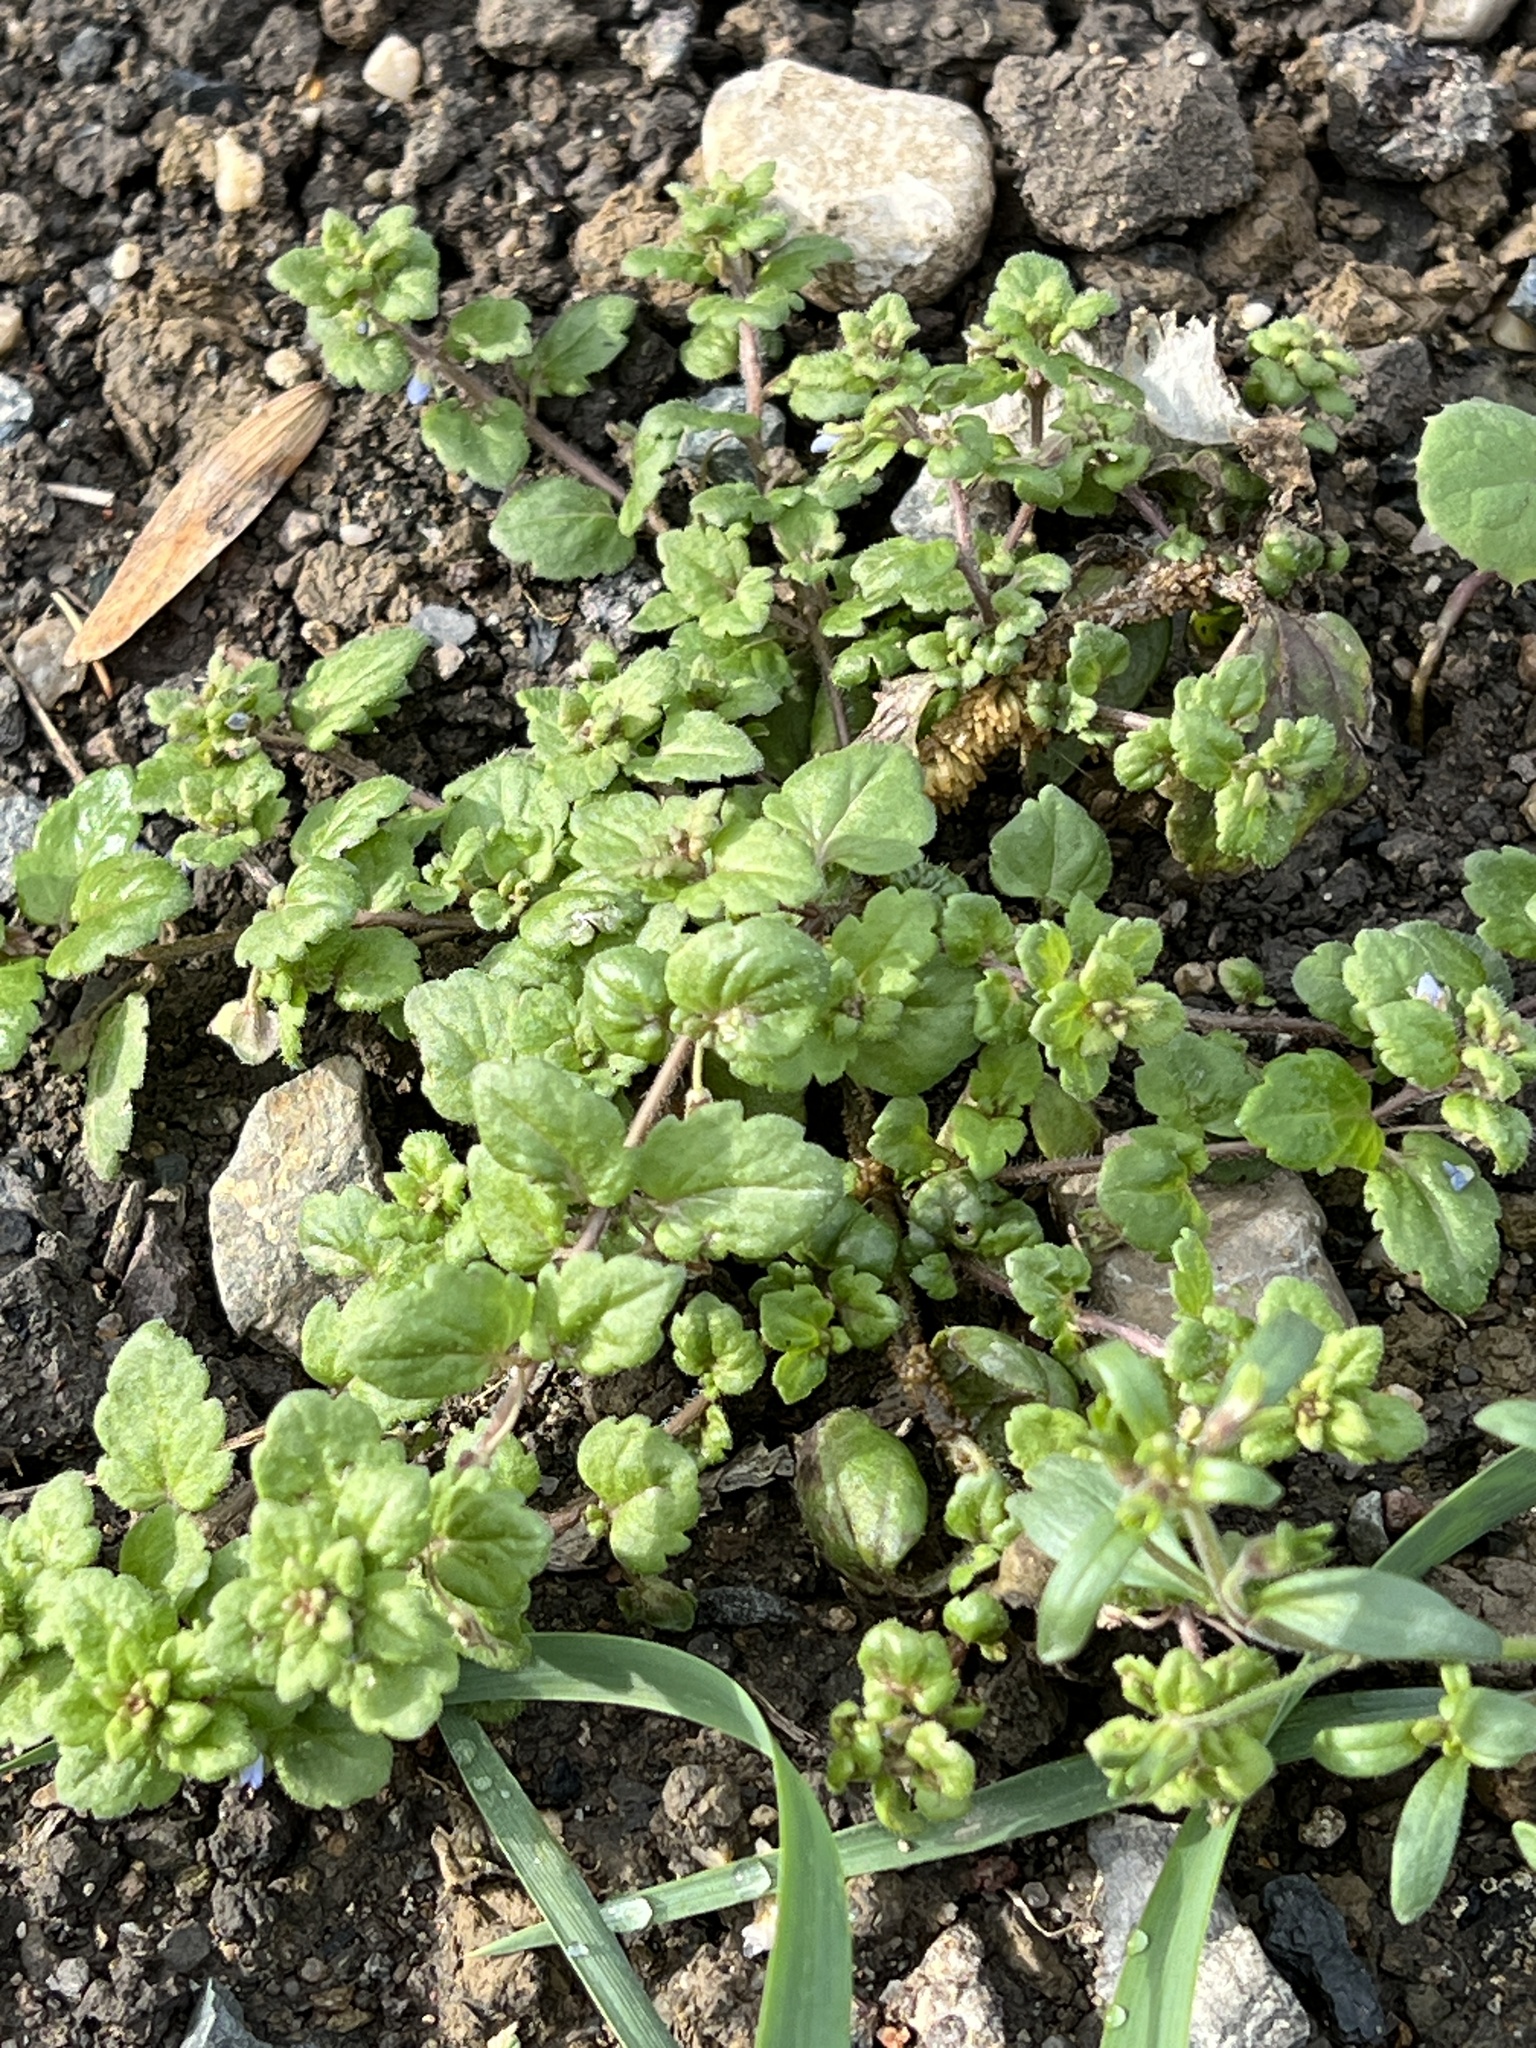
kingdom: Plantae
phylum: Tracheophyta
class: Magnoliopsida
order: Lamiales
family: Plantaginaceae
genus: Veronica
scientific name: Veronica polita
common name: Grey field-speedwell
